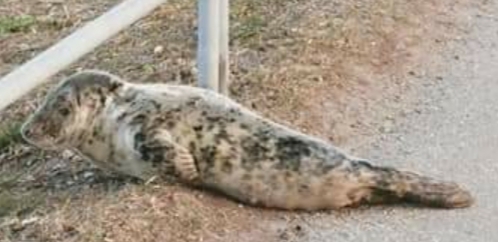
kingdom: Animalia
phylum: Chordata
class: Mammalia
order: Carnivora
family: Phocidae
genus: Halichoerus
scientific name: Halichoerus grypus
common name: Grey seal
